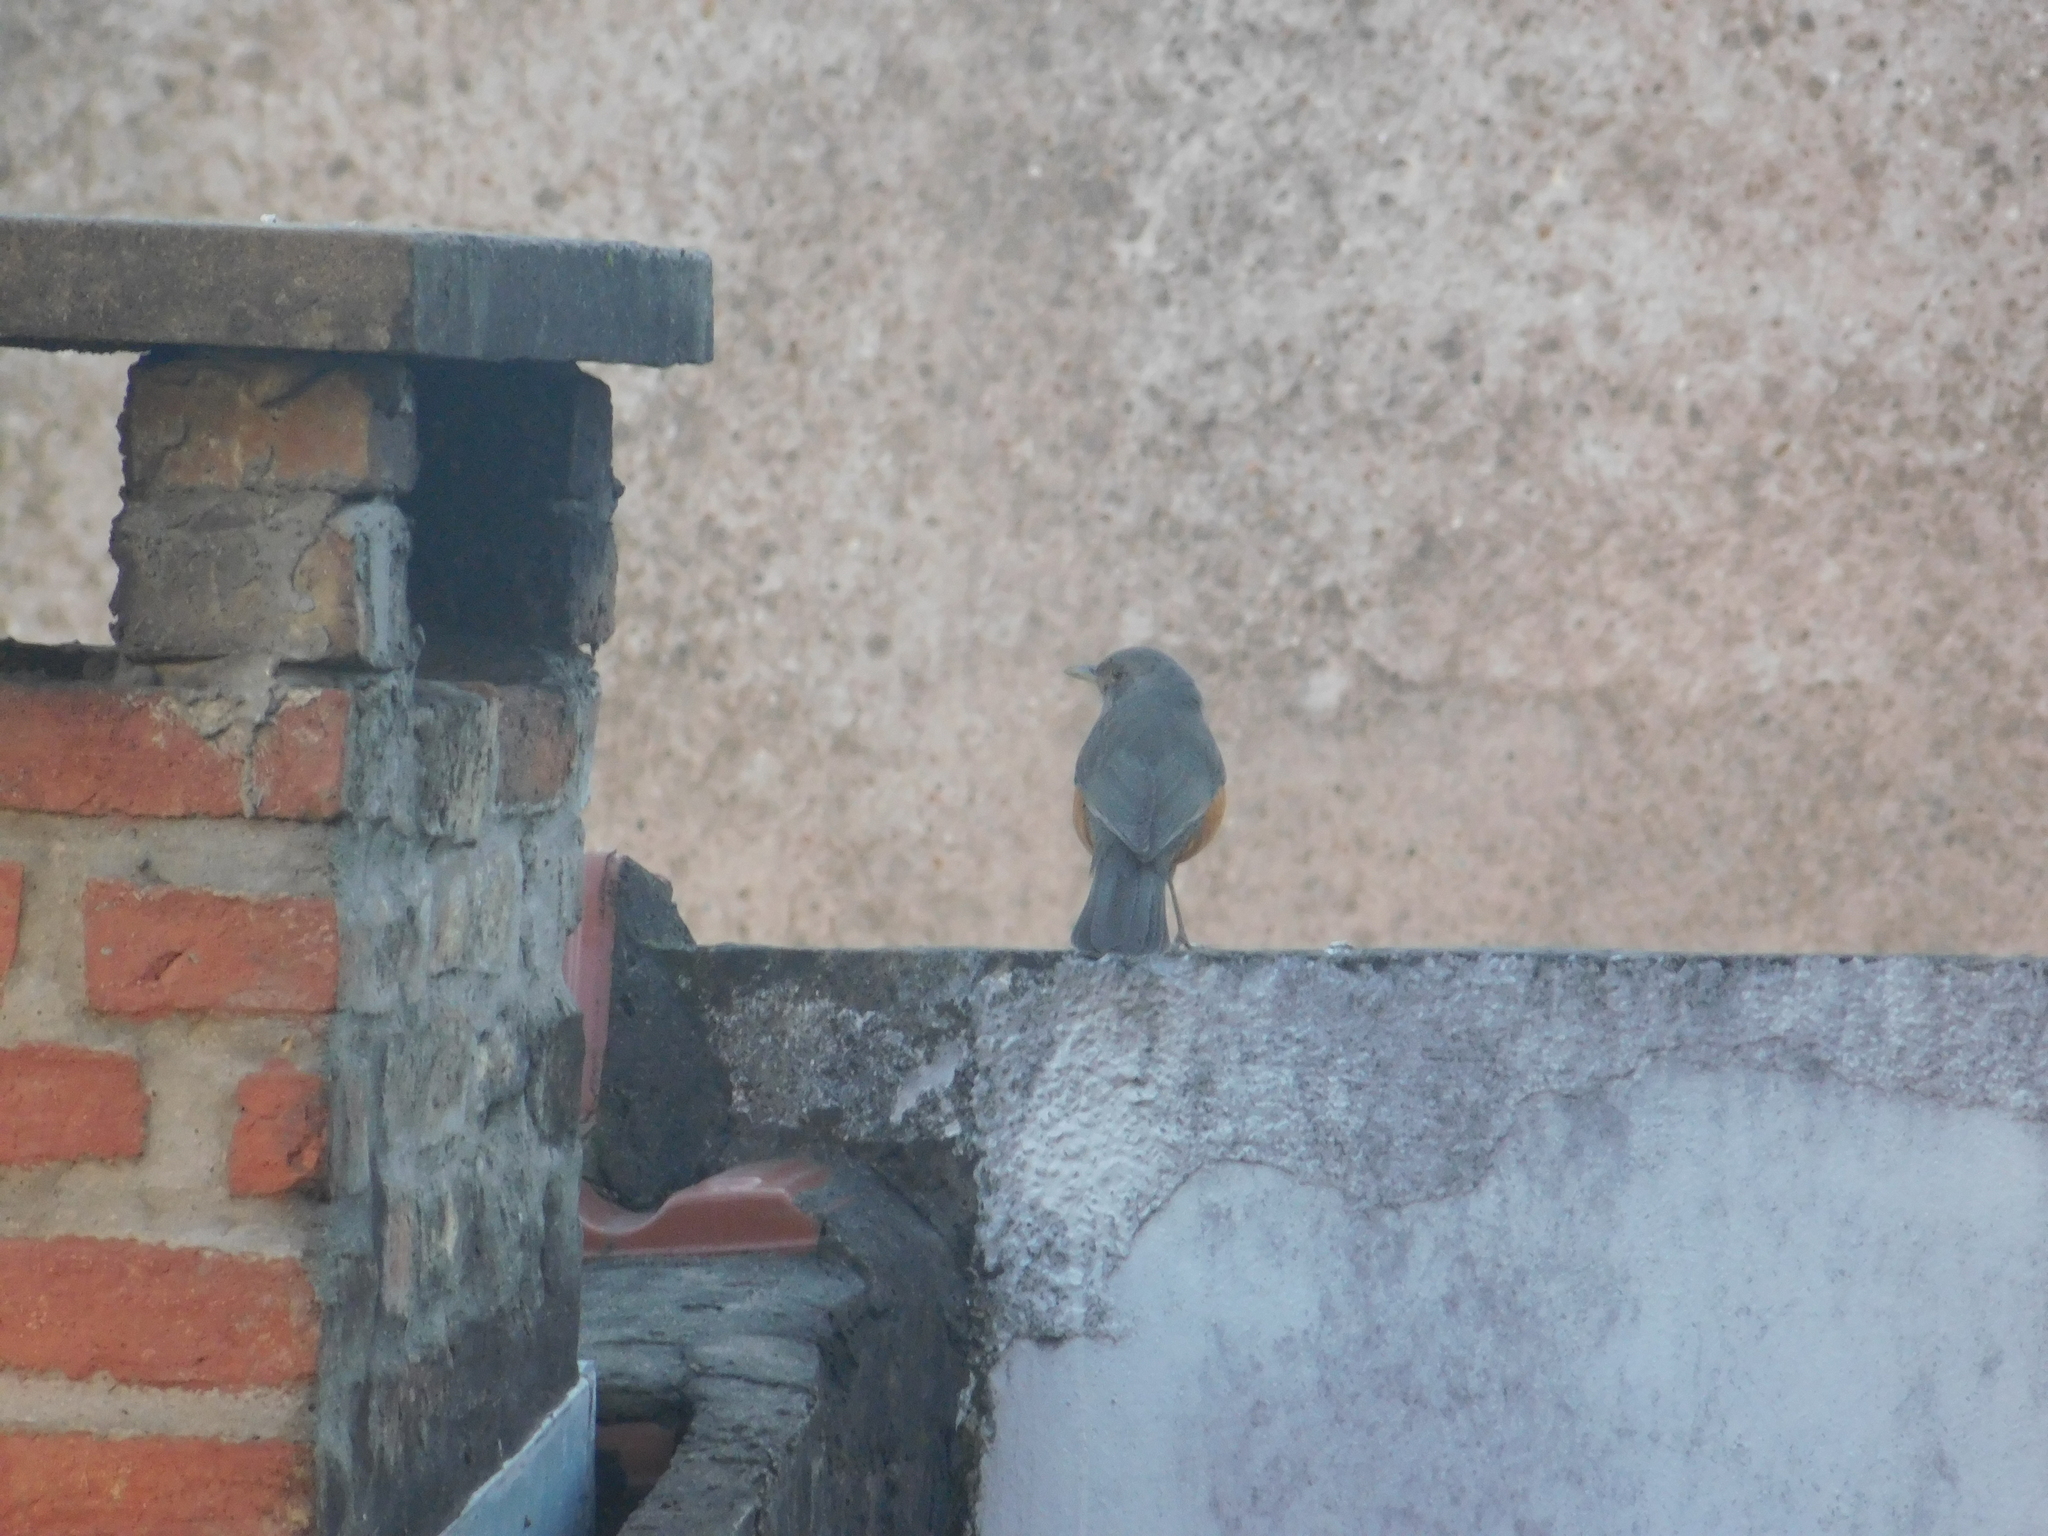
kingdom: Animalia
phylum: Chordata
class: Aves
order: Passeriformes
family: Turdidae
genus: Turdus
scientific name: Turdus rufiventris
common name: Rufous-bellied thrush
